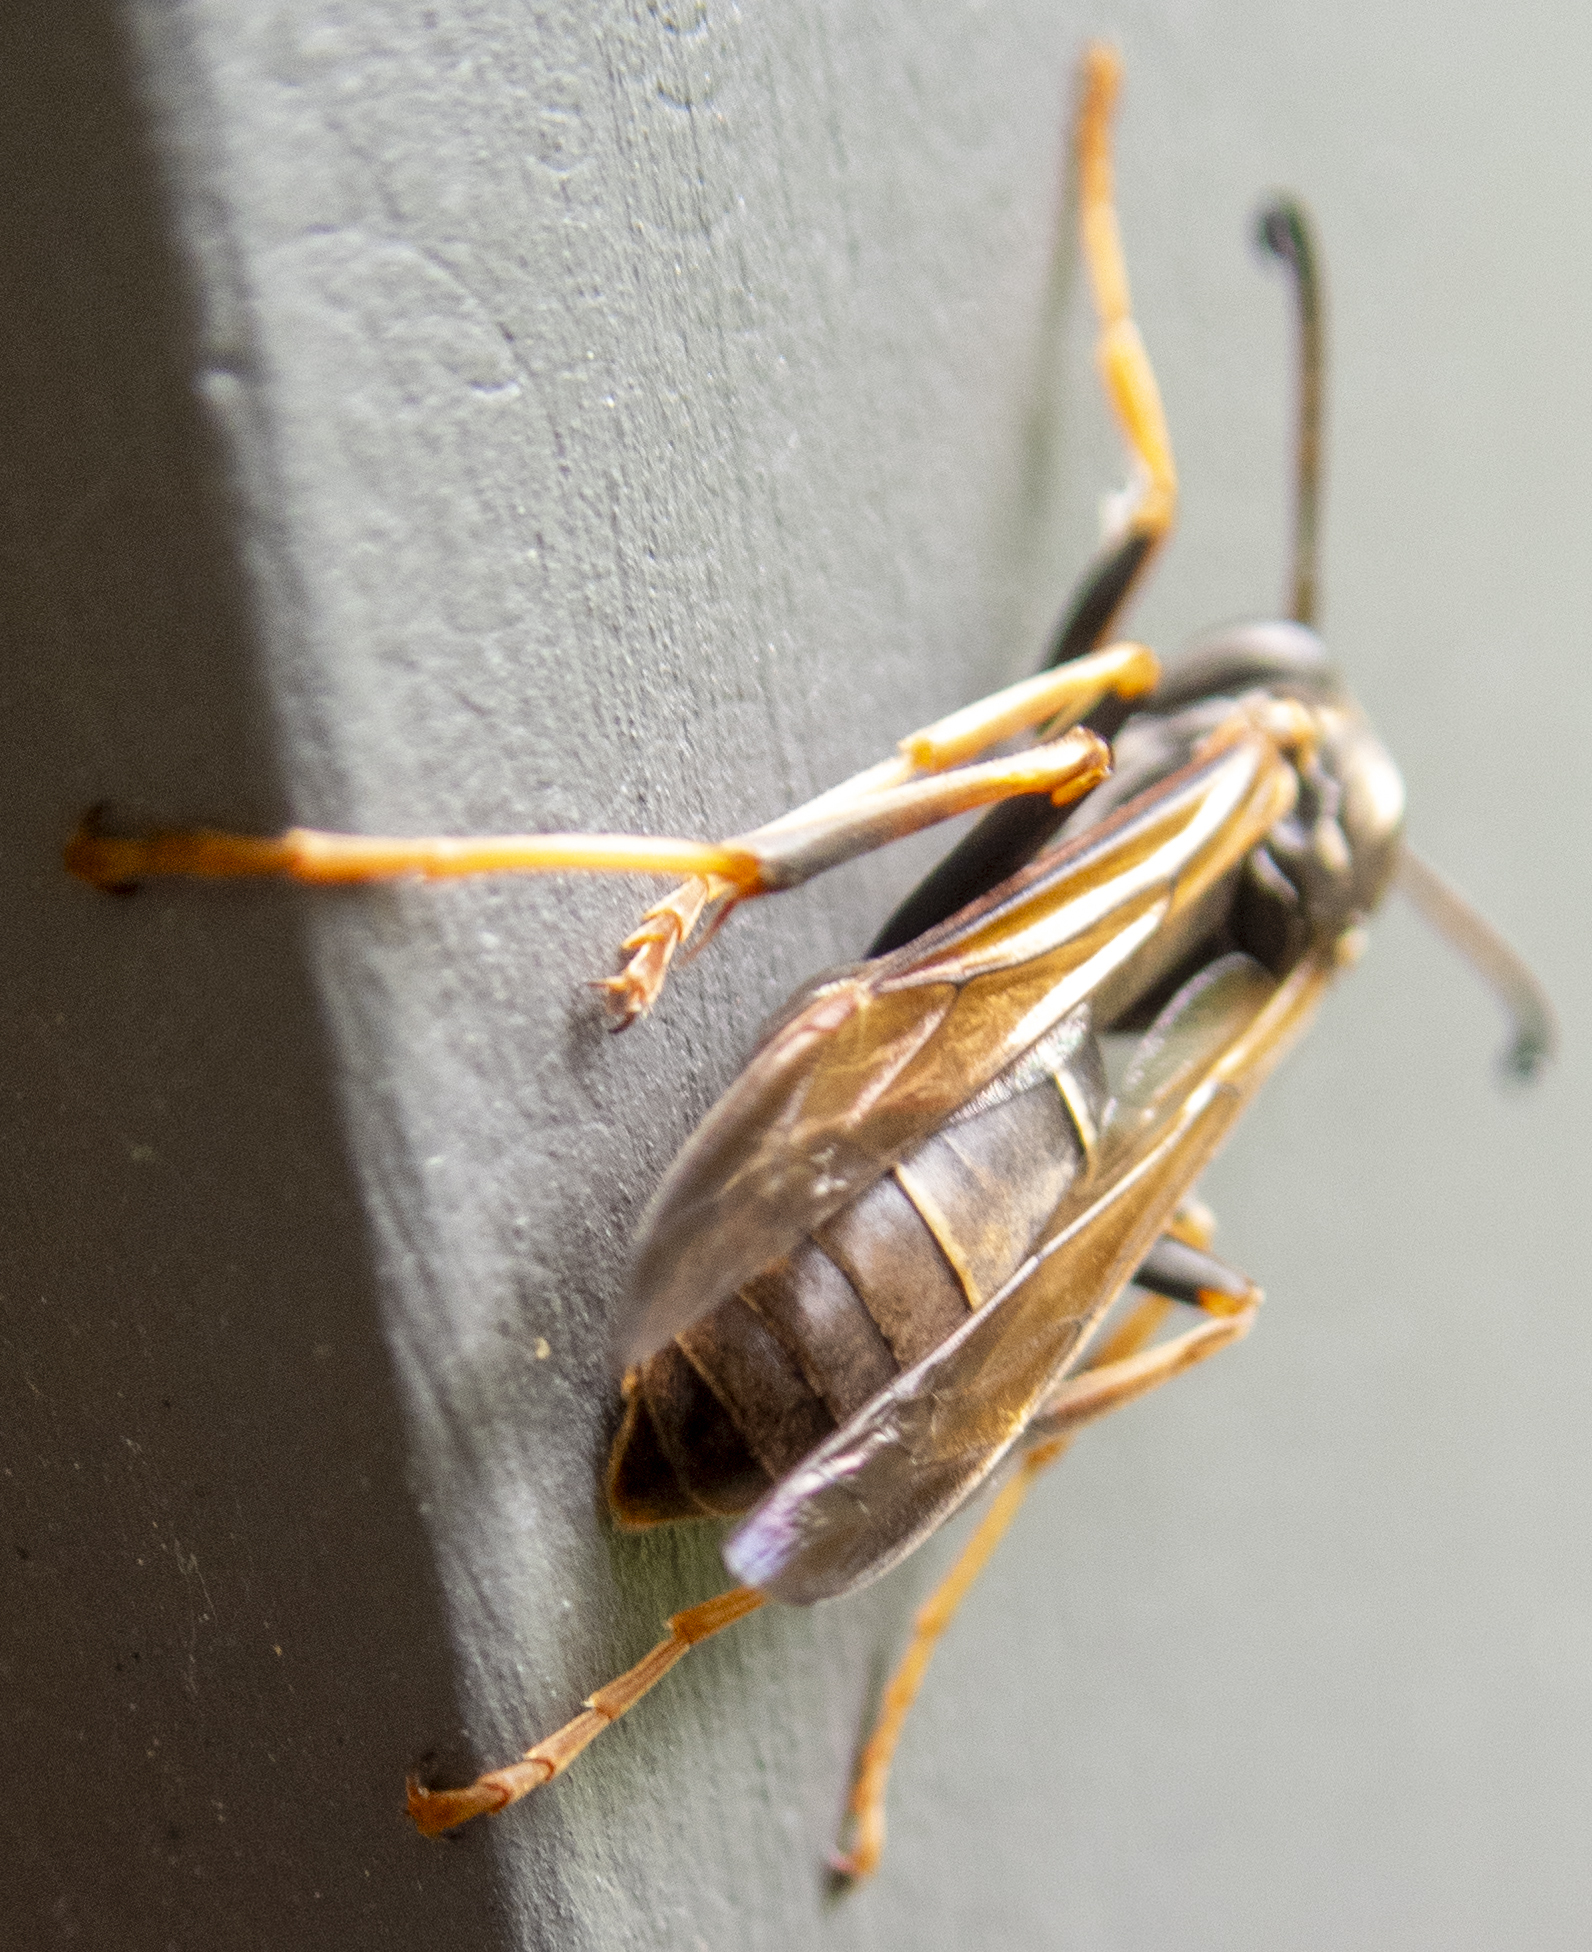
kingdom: Animalia
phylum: Arthropoda
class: Insecta
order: Hymenoptera
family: Eumenidae
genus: Polistes
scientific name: Polistes fuscatus
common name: Dark paper wasp
